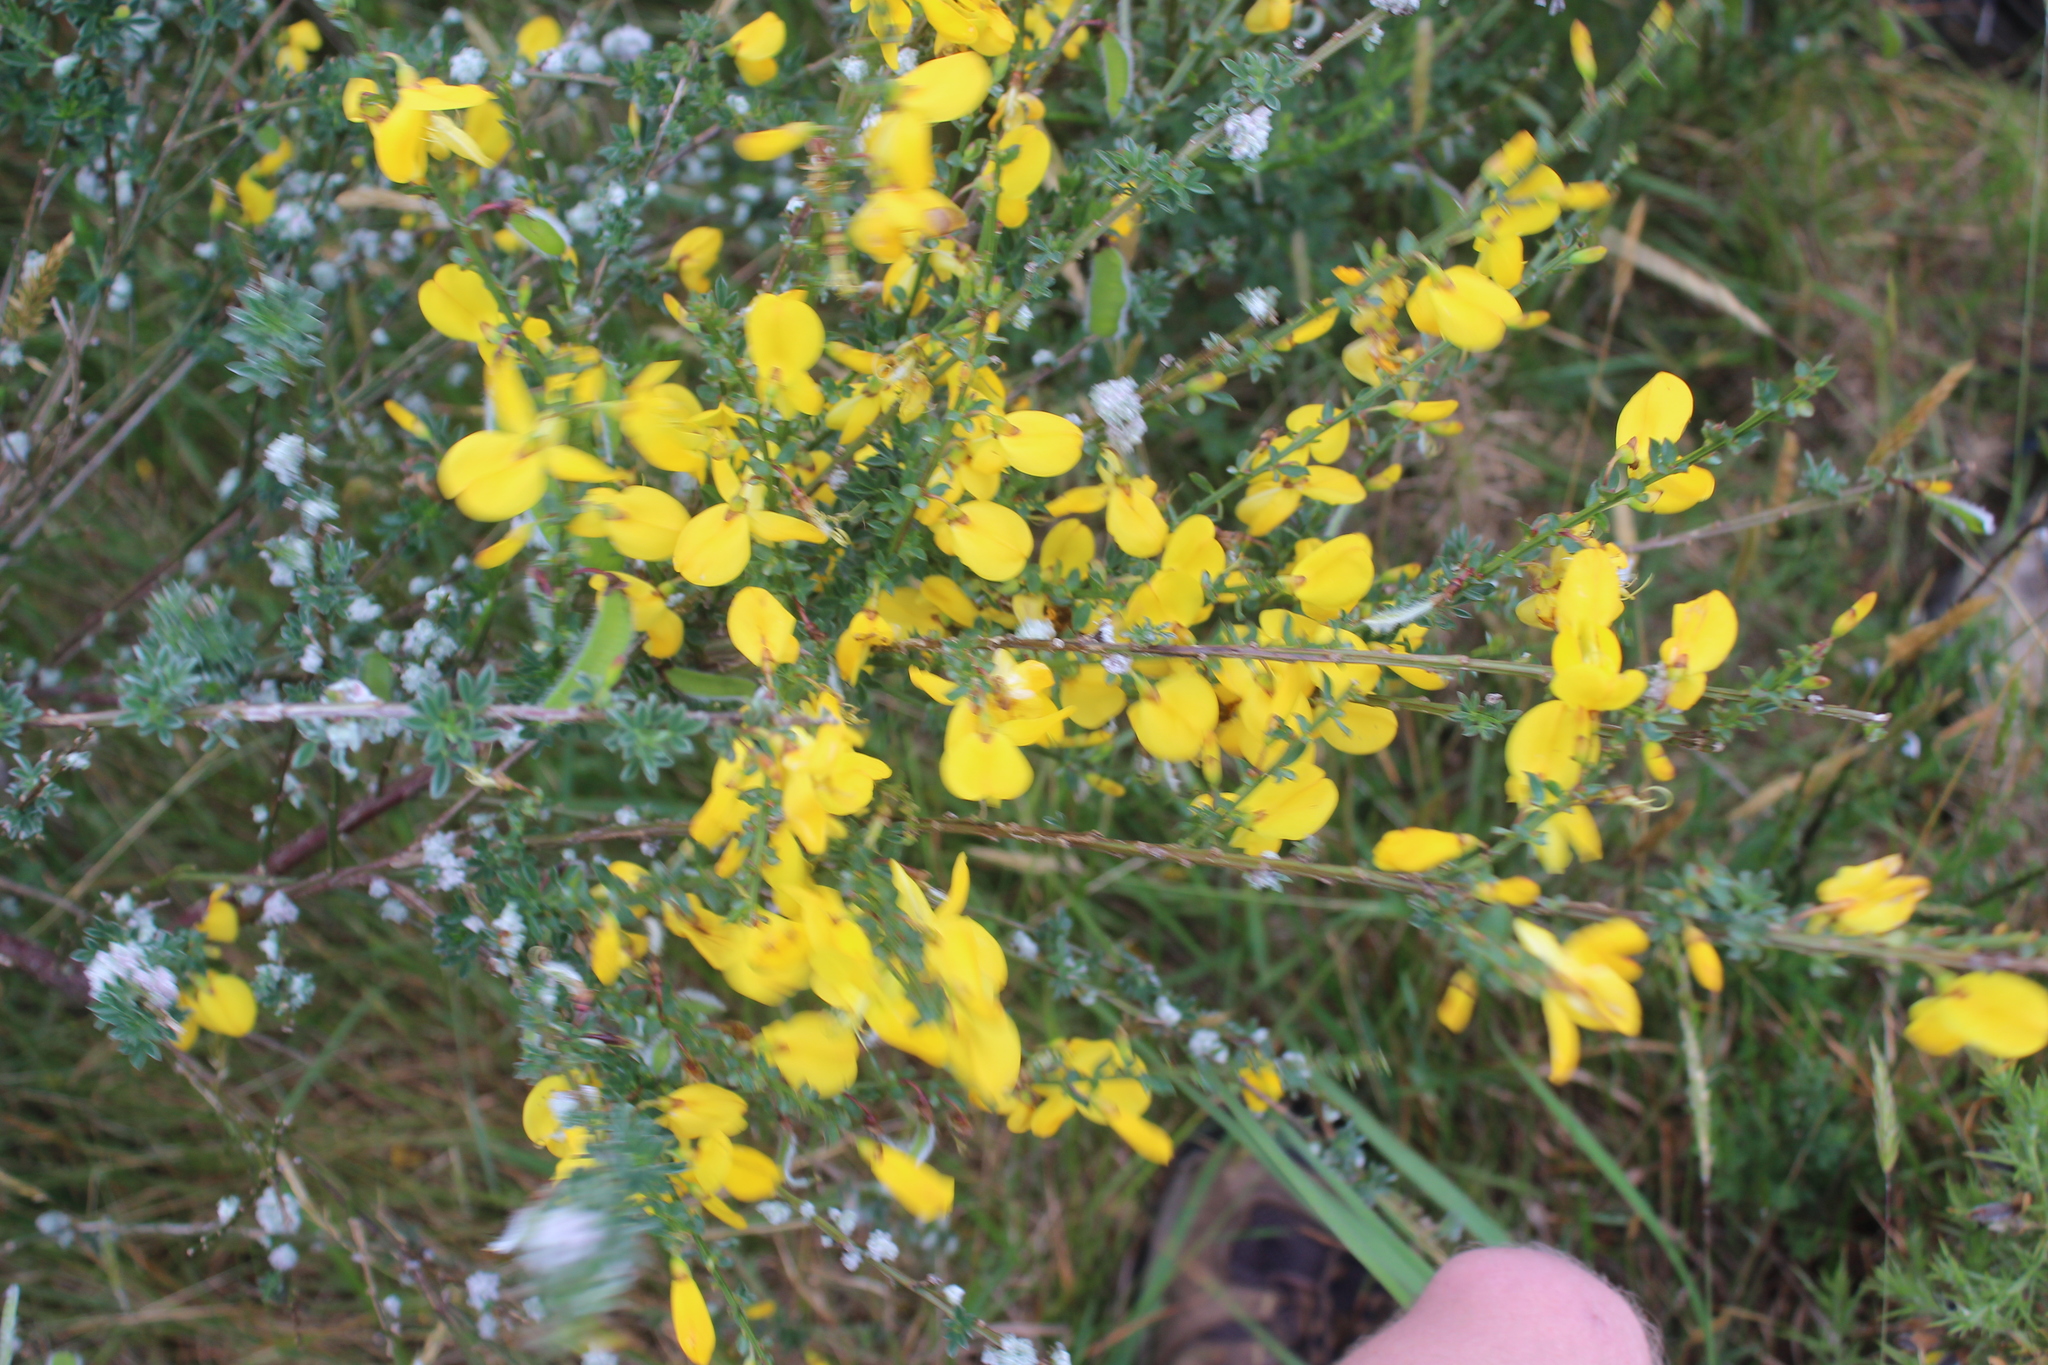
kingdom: Plantae
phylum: Tracheophyta
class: Magnoliopsida
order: Fabales
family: Fabaceae
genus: Cytisus
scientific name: Cytisus scoparius
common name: Scotch broom
